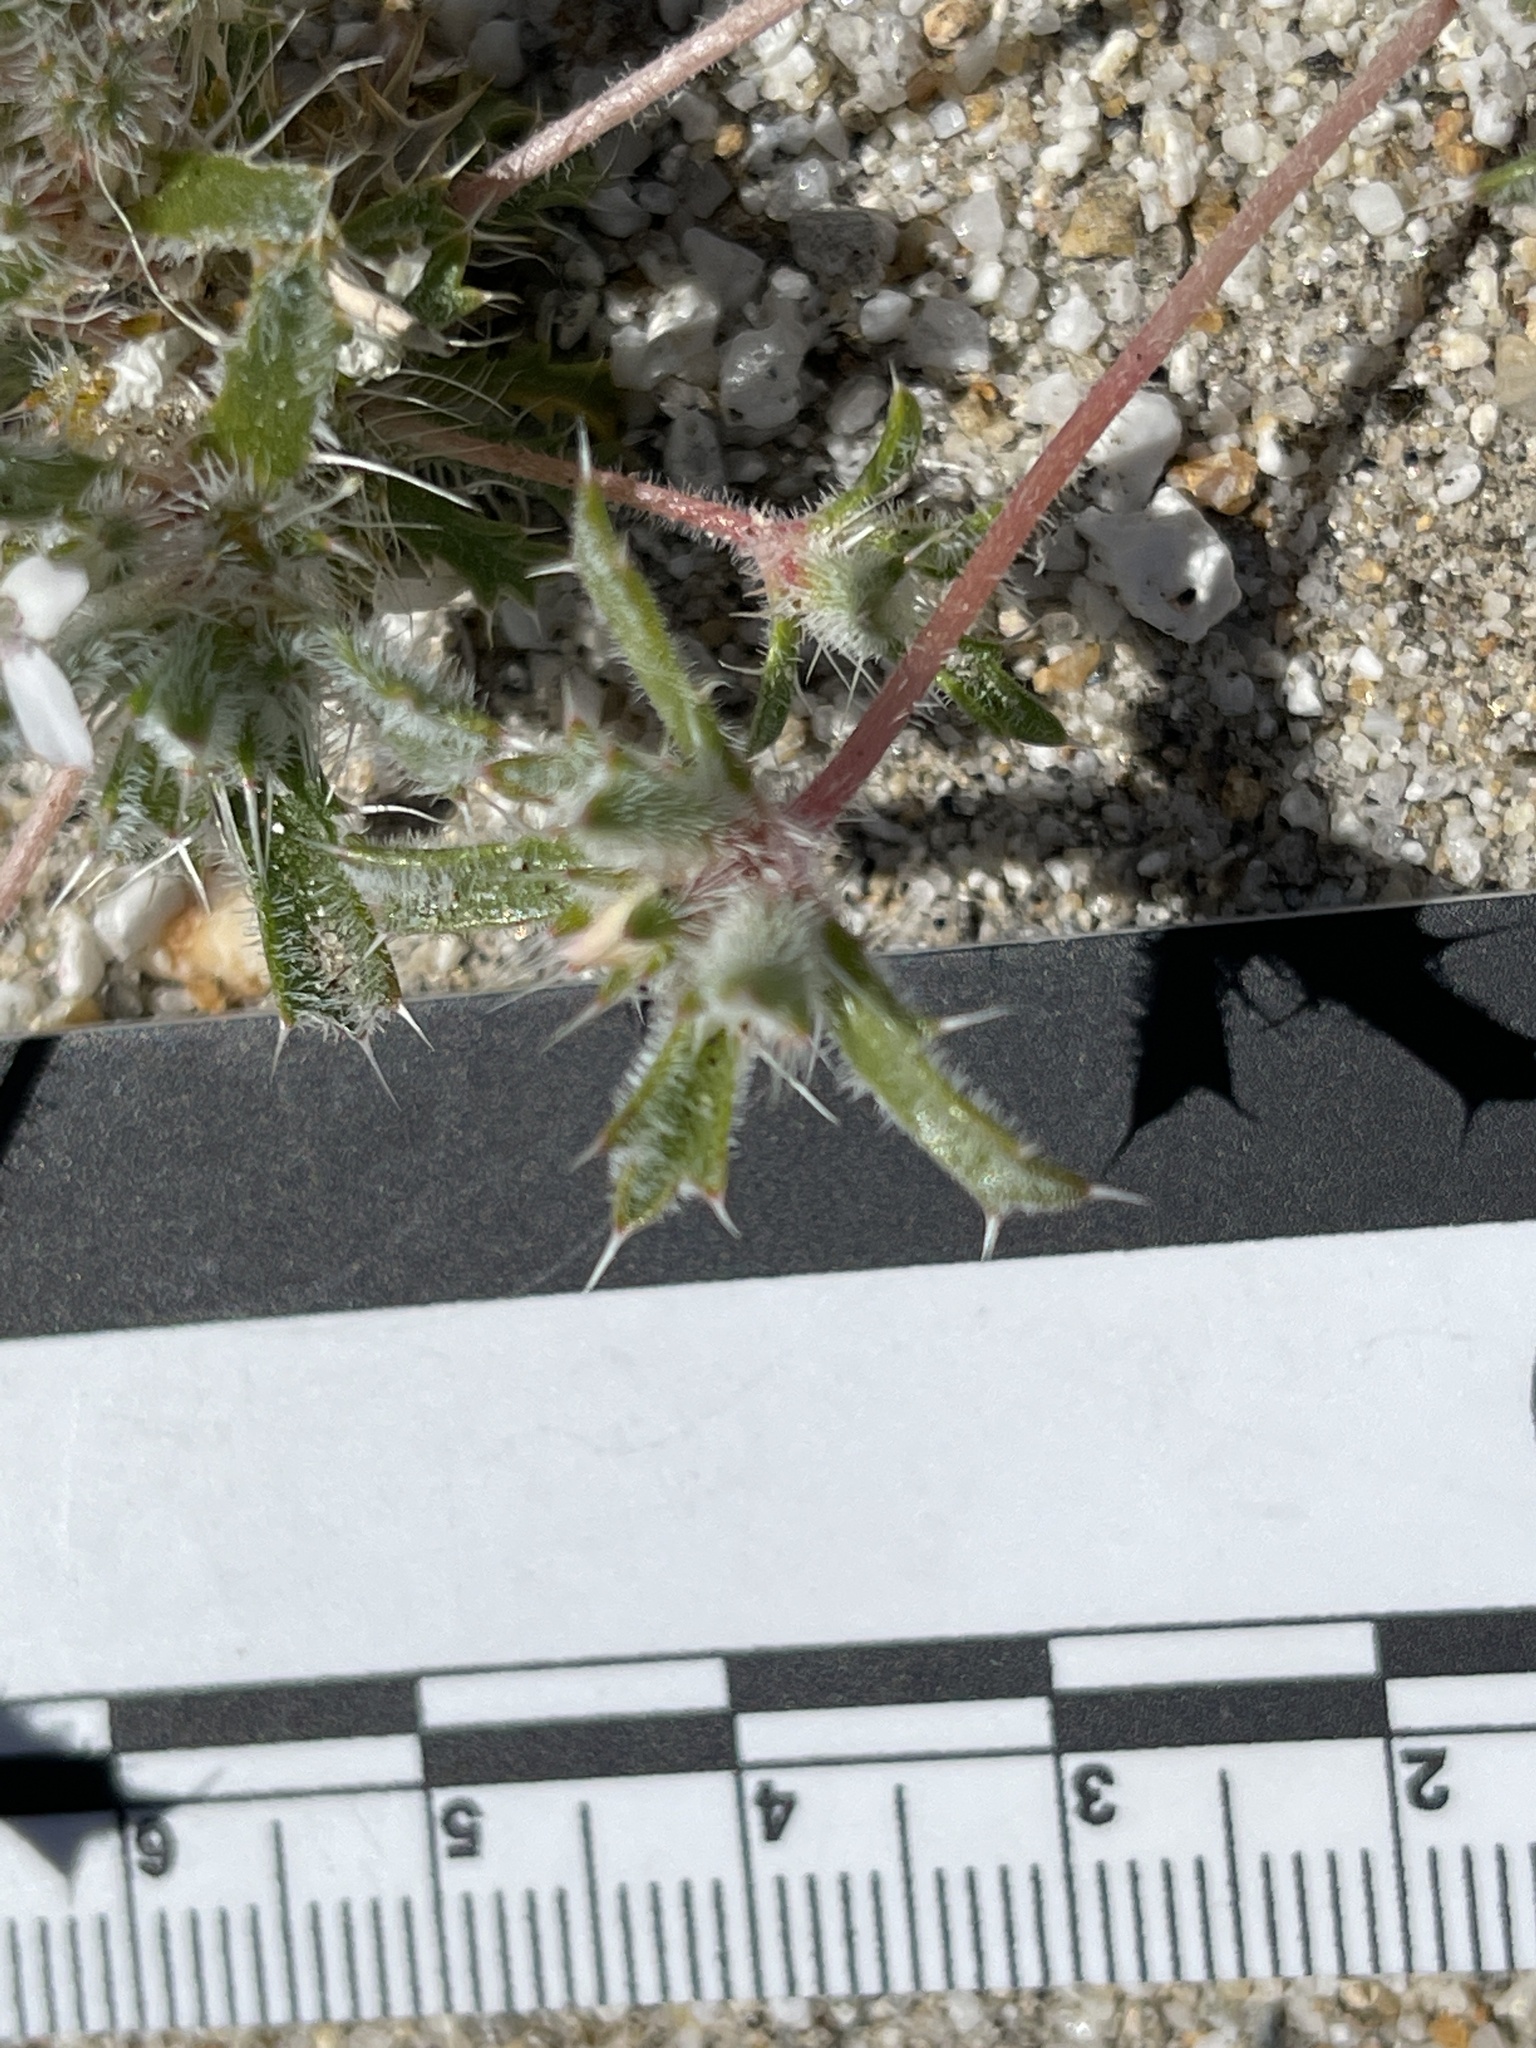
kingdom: Plantae
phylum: Tracheophyta
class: Magnoliopsida
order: Ericales
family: Polemoniaceae
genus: Loeseliastrum
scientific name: Loeseliastrum schottii
